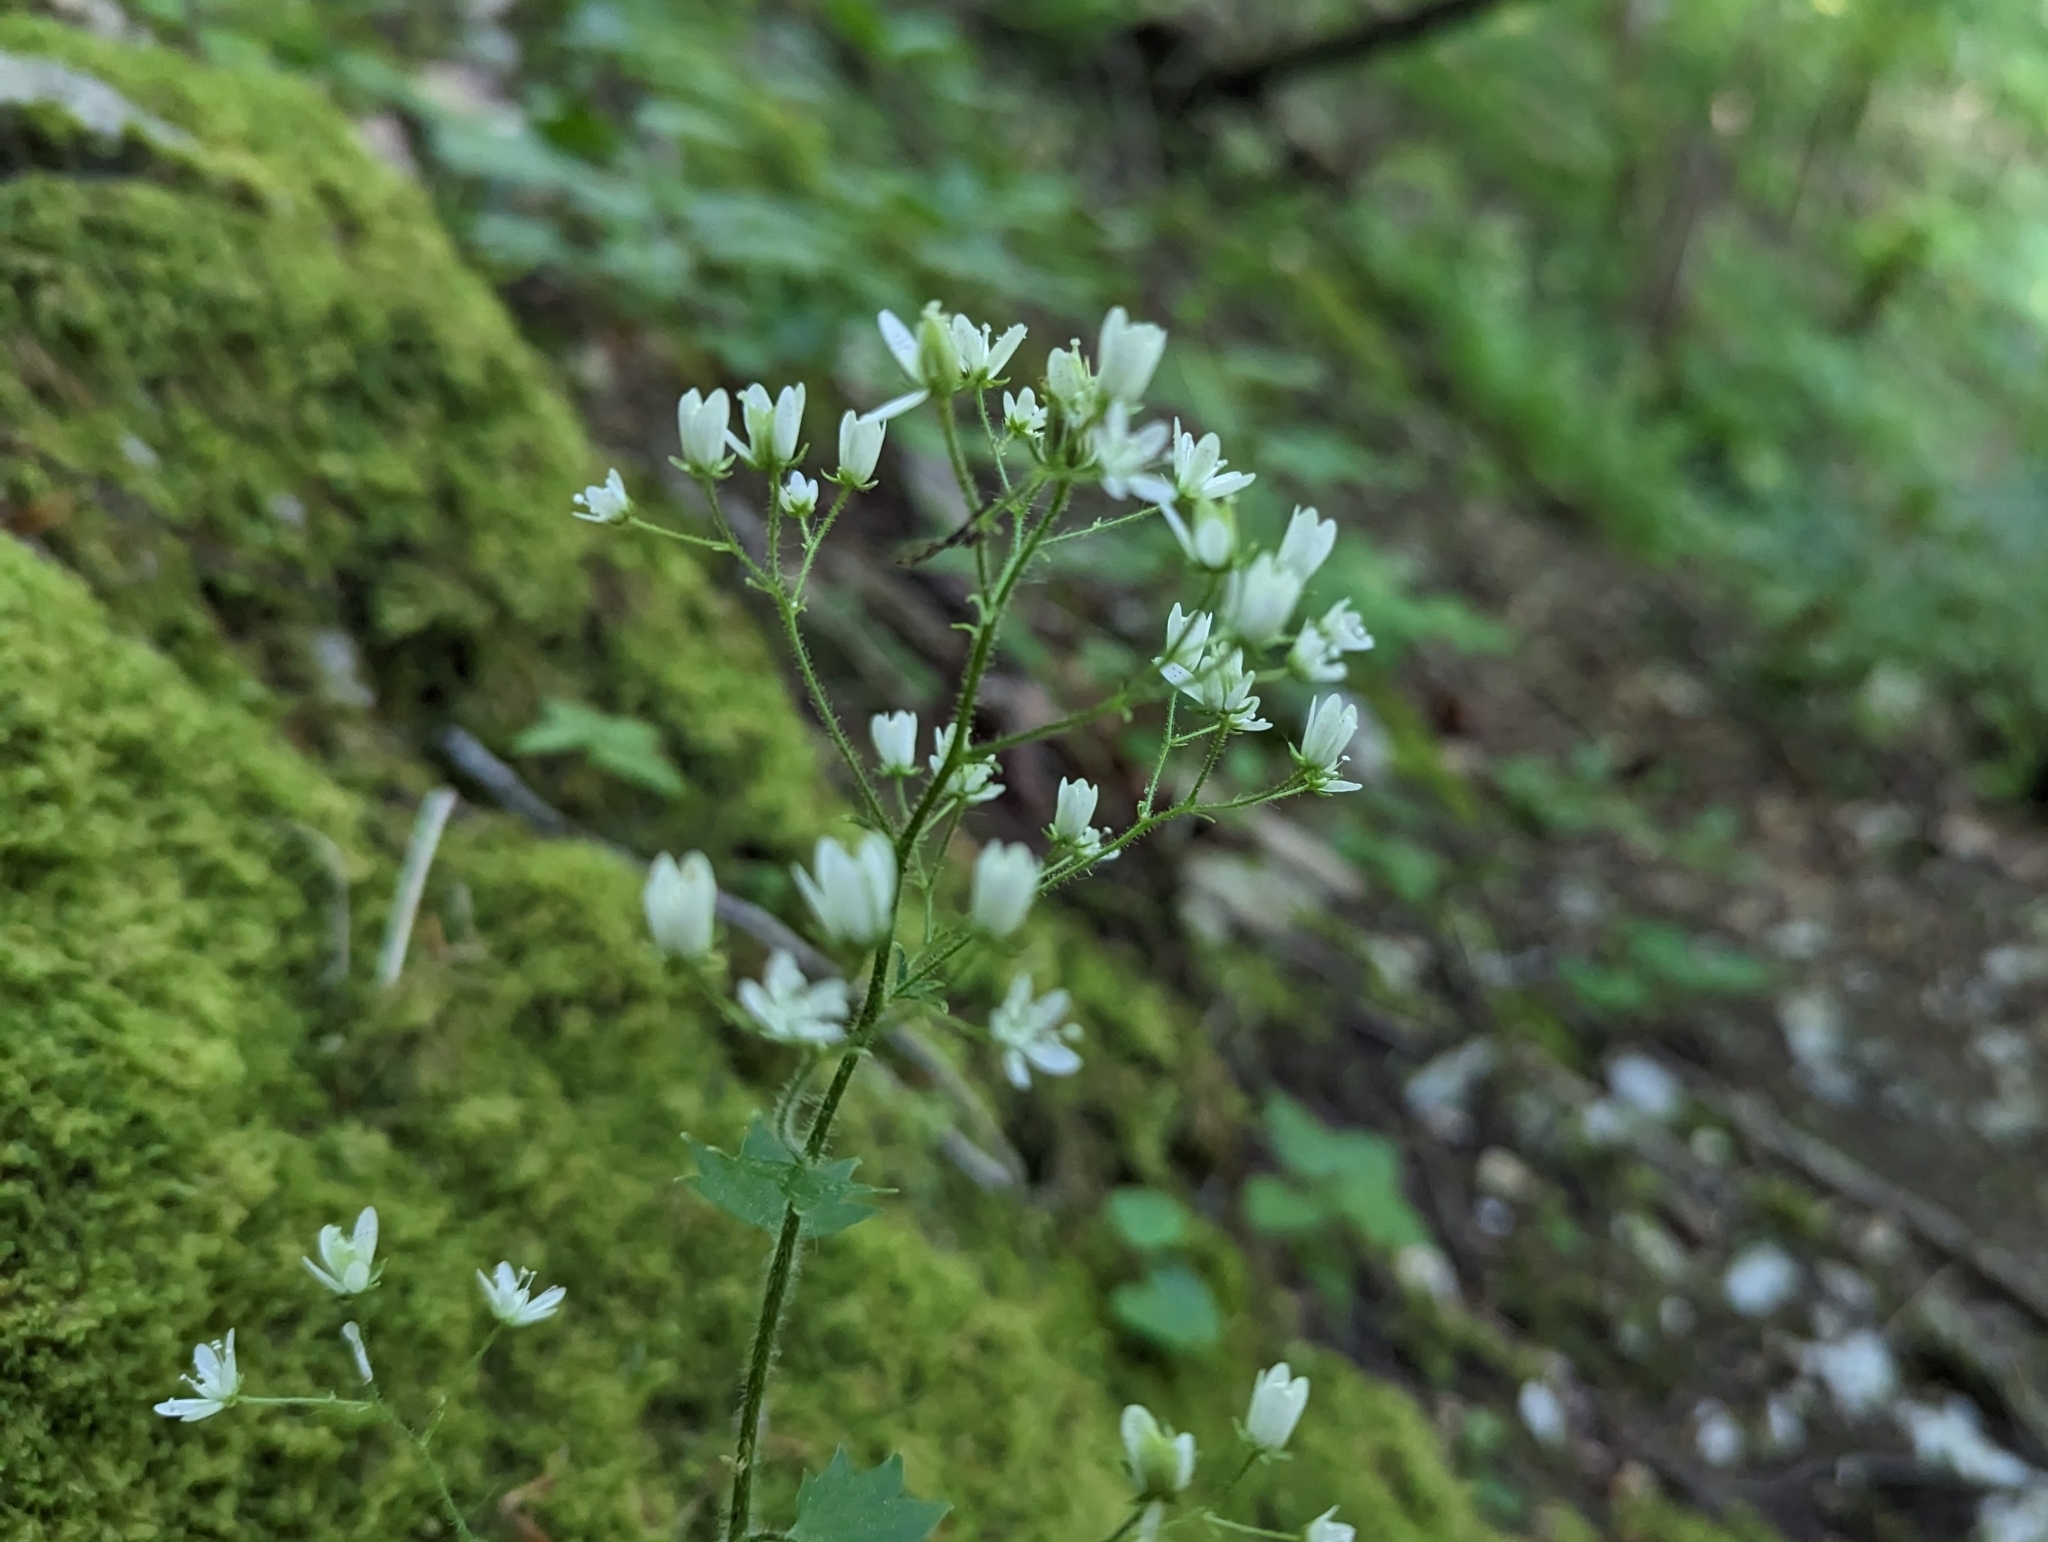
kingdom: Plantae
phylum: Tracheophyta
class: Magnoliopsida
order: Saxifragales
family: Saxifragaceae
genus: Saxifraga
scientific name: Saxifraga rotundifolia
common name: Round-leaved saxifrage
